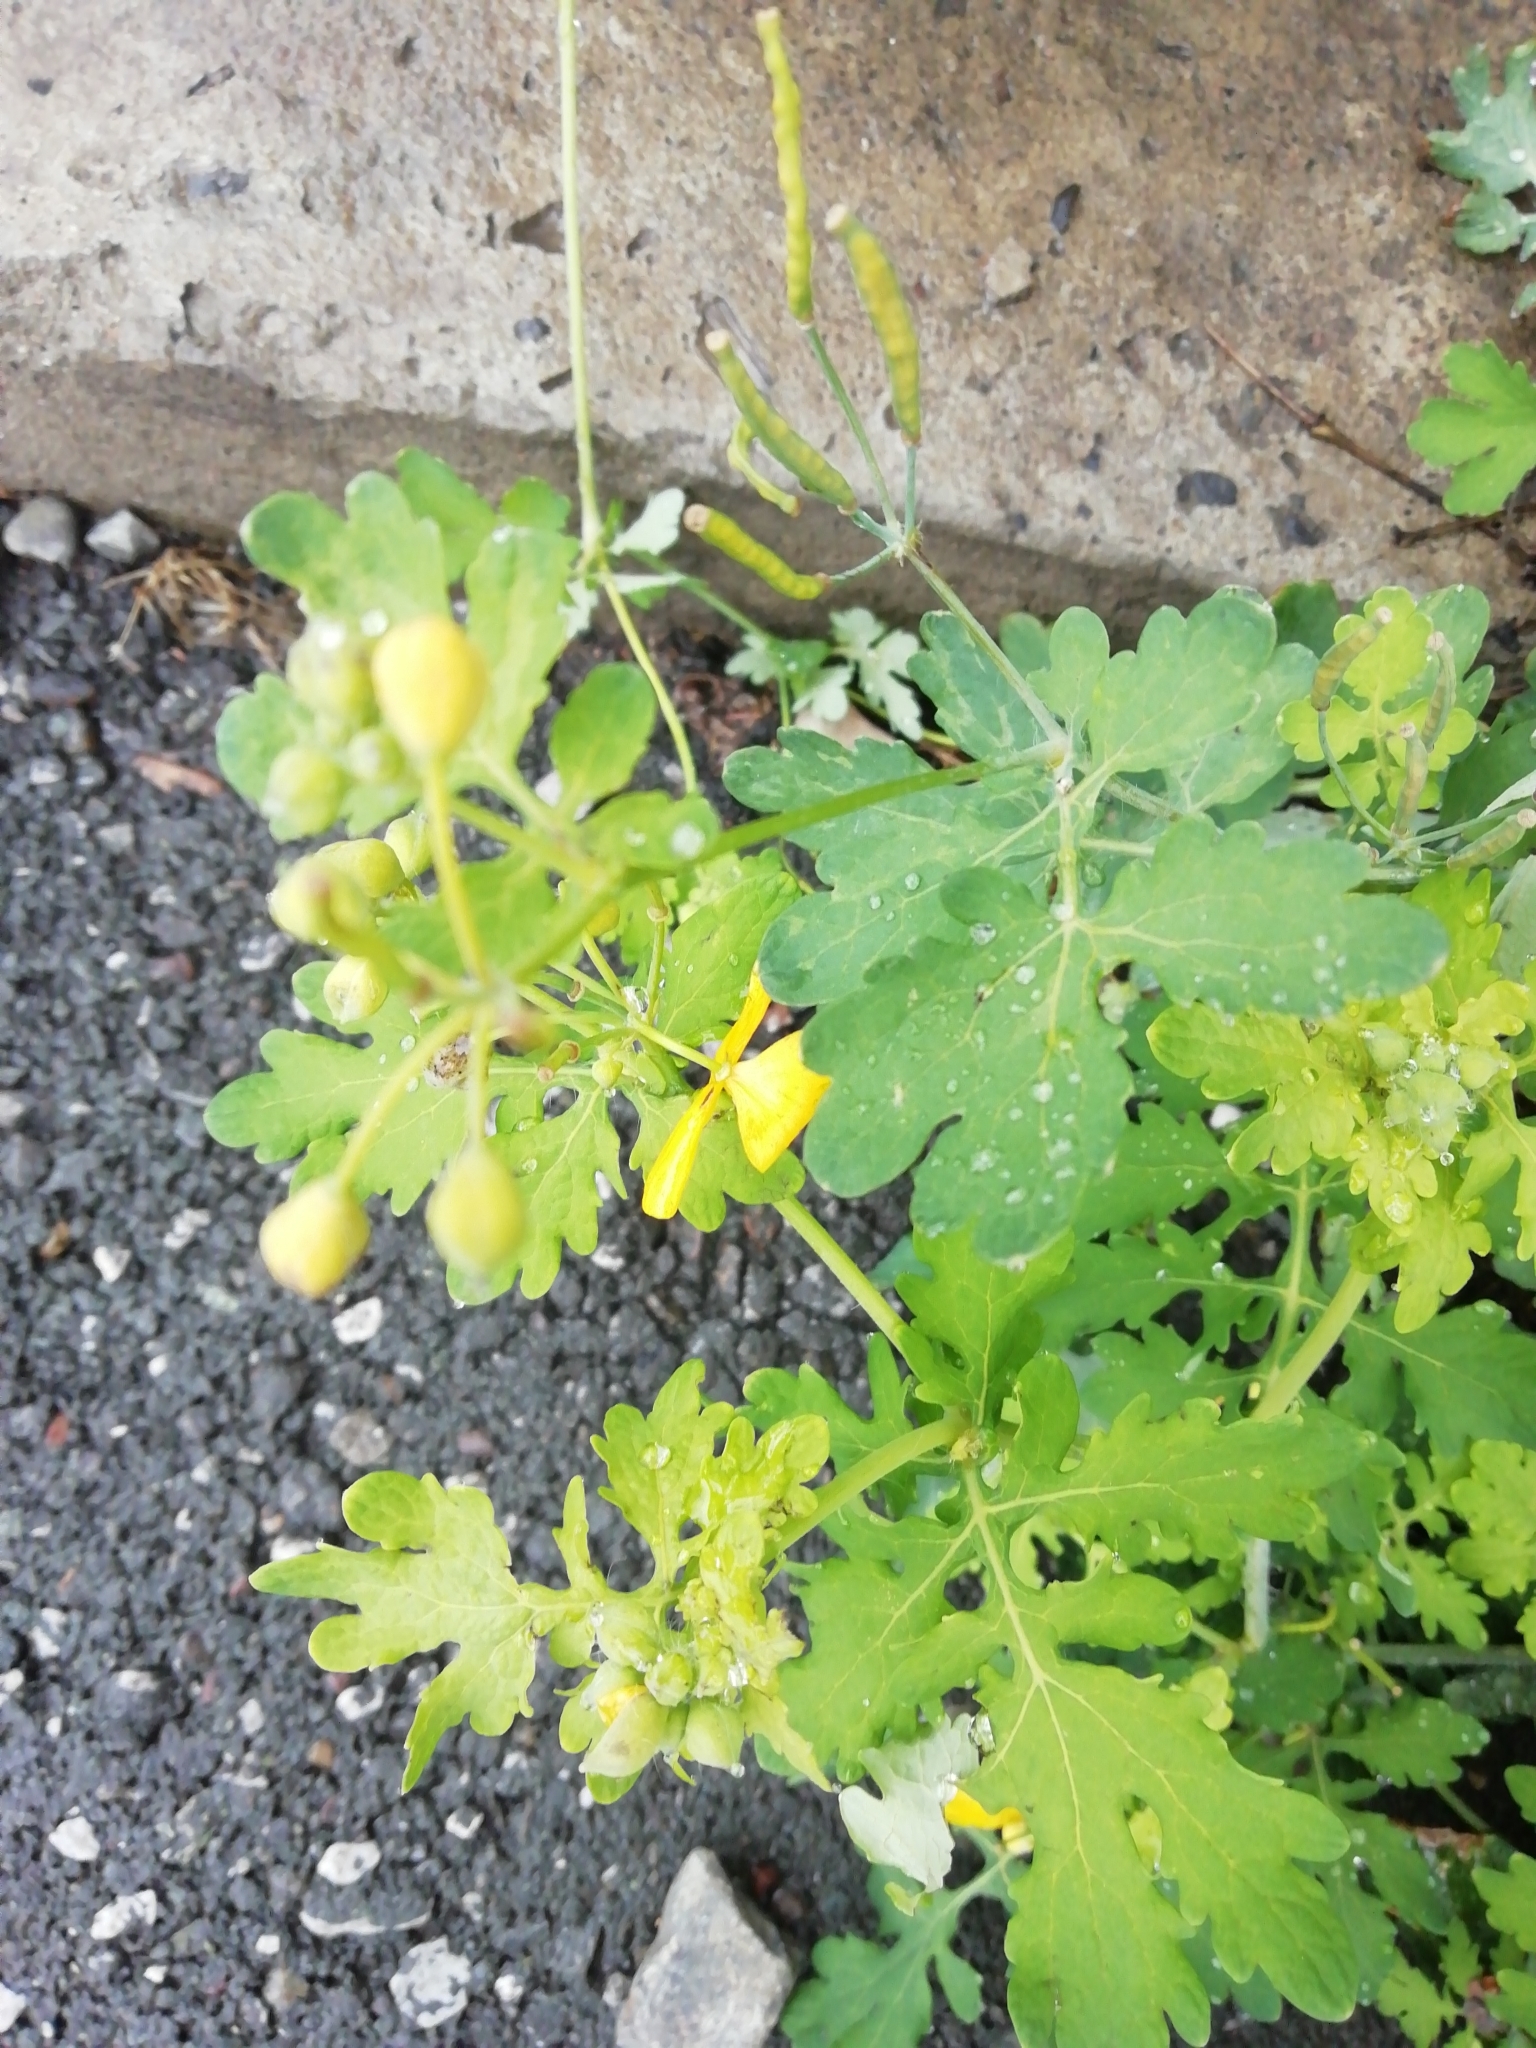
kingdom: Plantae
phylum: Tracheophyta
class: Magnoliopsida
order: Ranunculales
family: Papaveraceae
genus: Chelidonium
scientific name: Chelidonium majus
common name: Greater celandine
